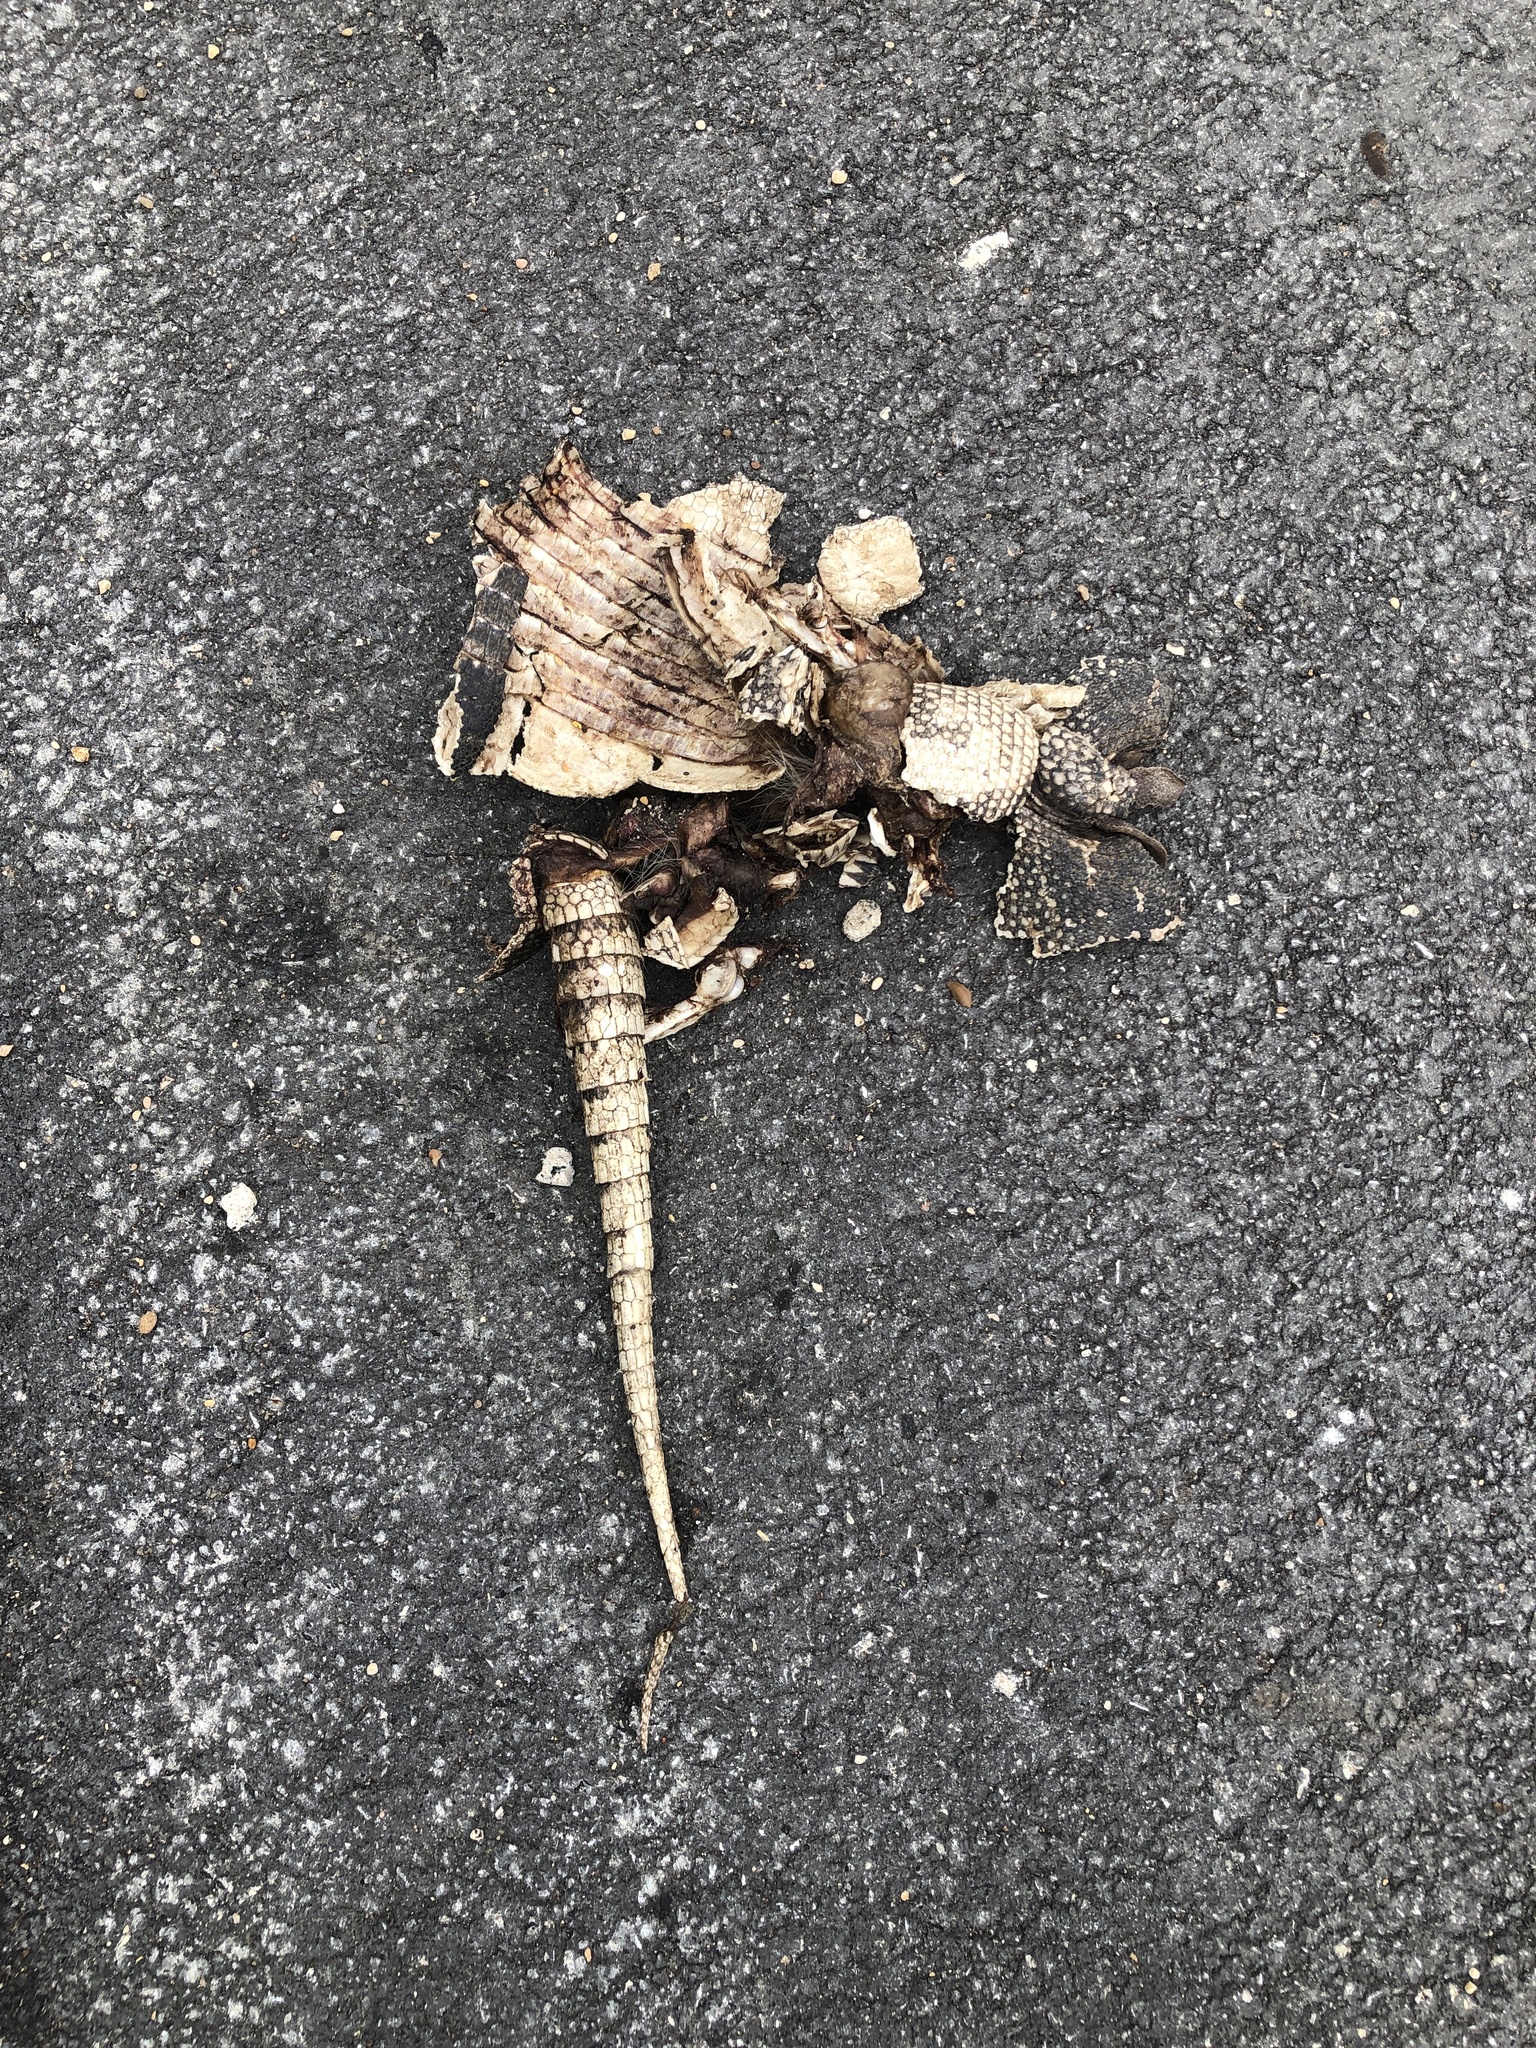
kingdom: Animalia
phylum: Chordata
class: Mammalia
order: Cingulata
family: Dasypodidae
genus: Dasypus
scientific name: Dasypus novemcinctus
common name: Nine-banded armadillo
